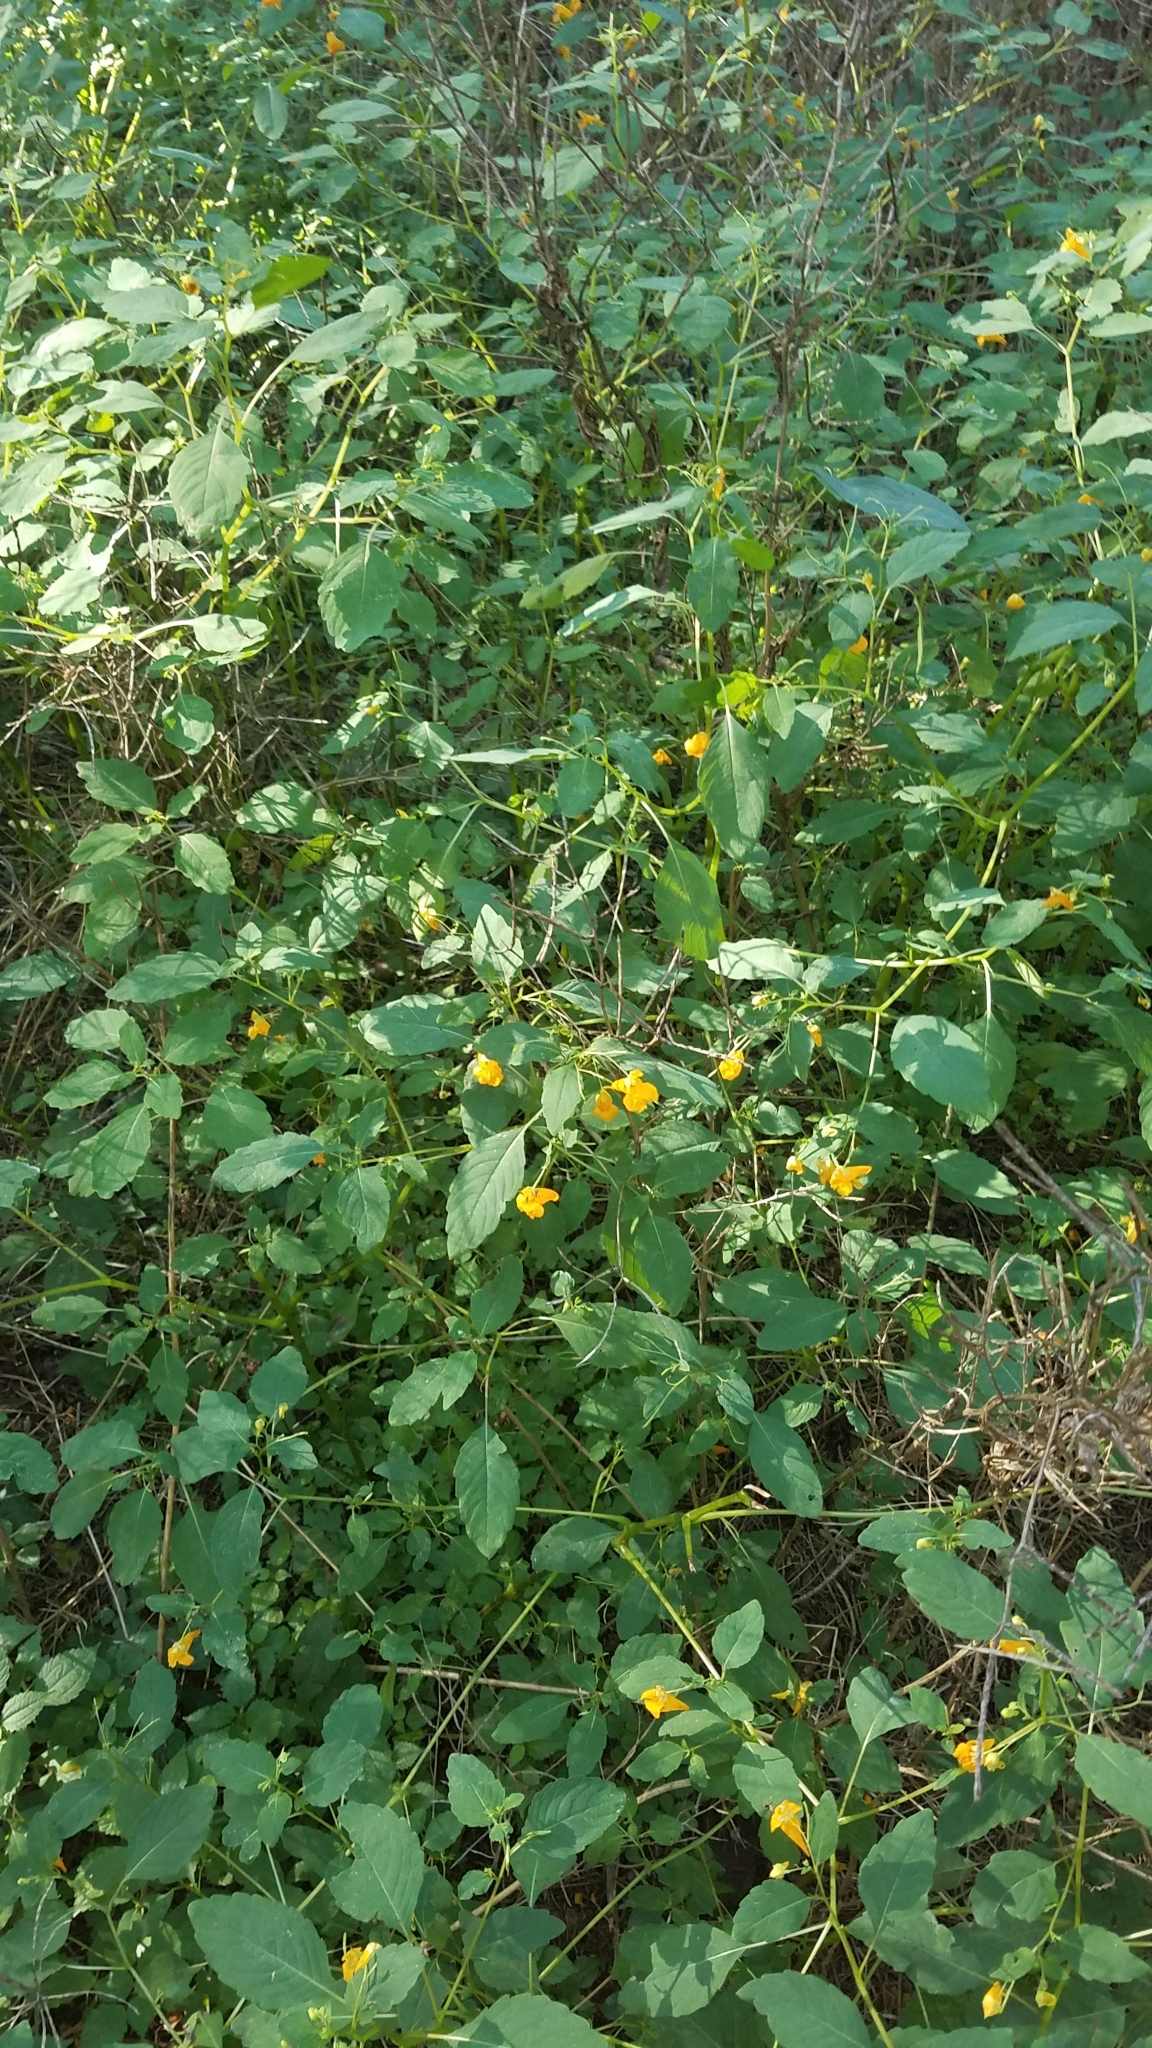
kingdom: Plantae
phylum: Tracheophyta
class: Magnoliopsida
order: Ericales
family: Balsaminaceae
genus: Impatiens
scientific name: Impatiens capensis
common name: Orange balsam
